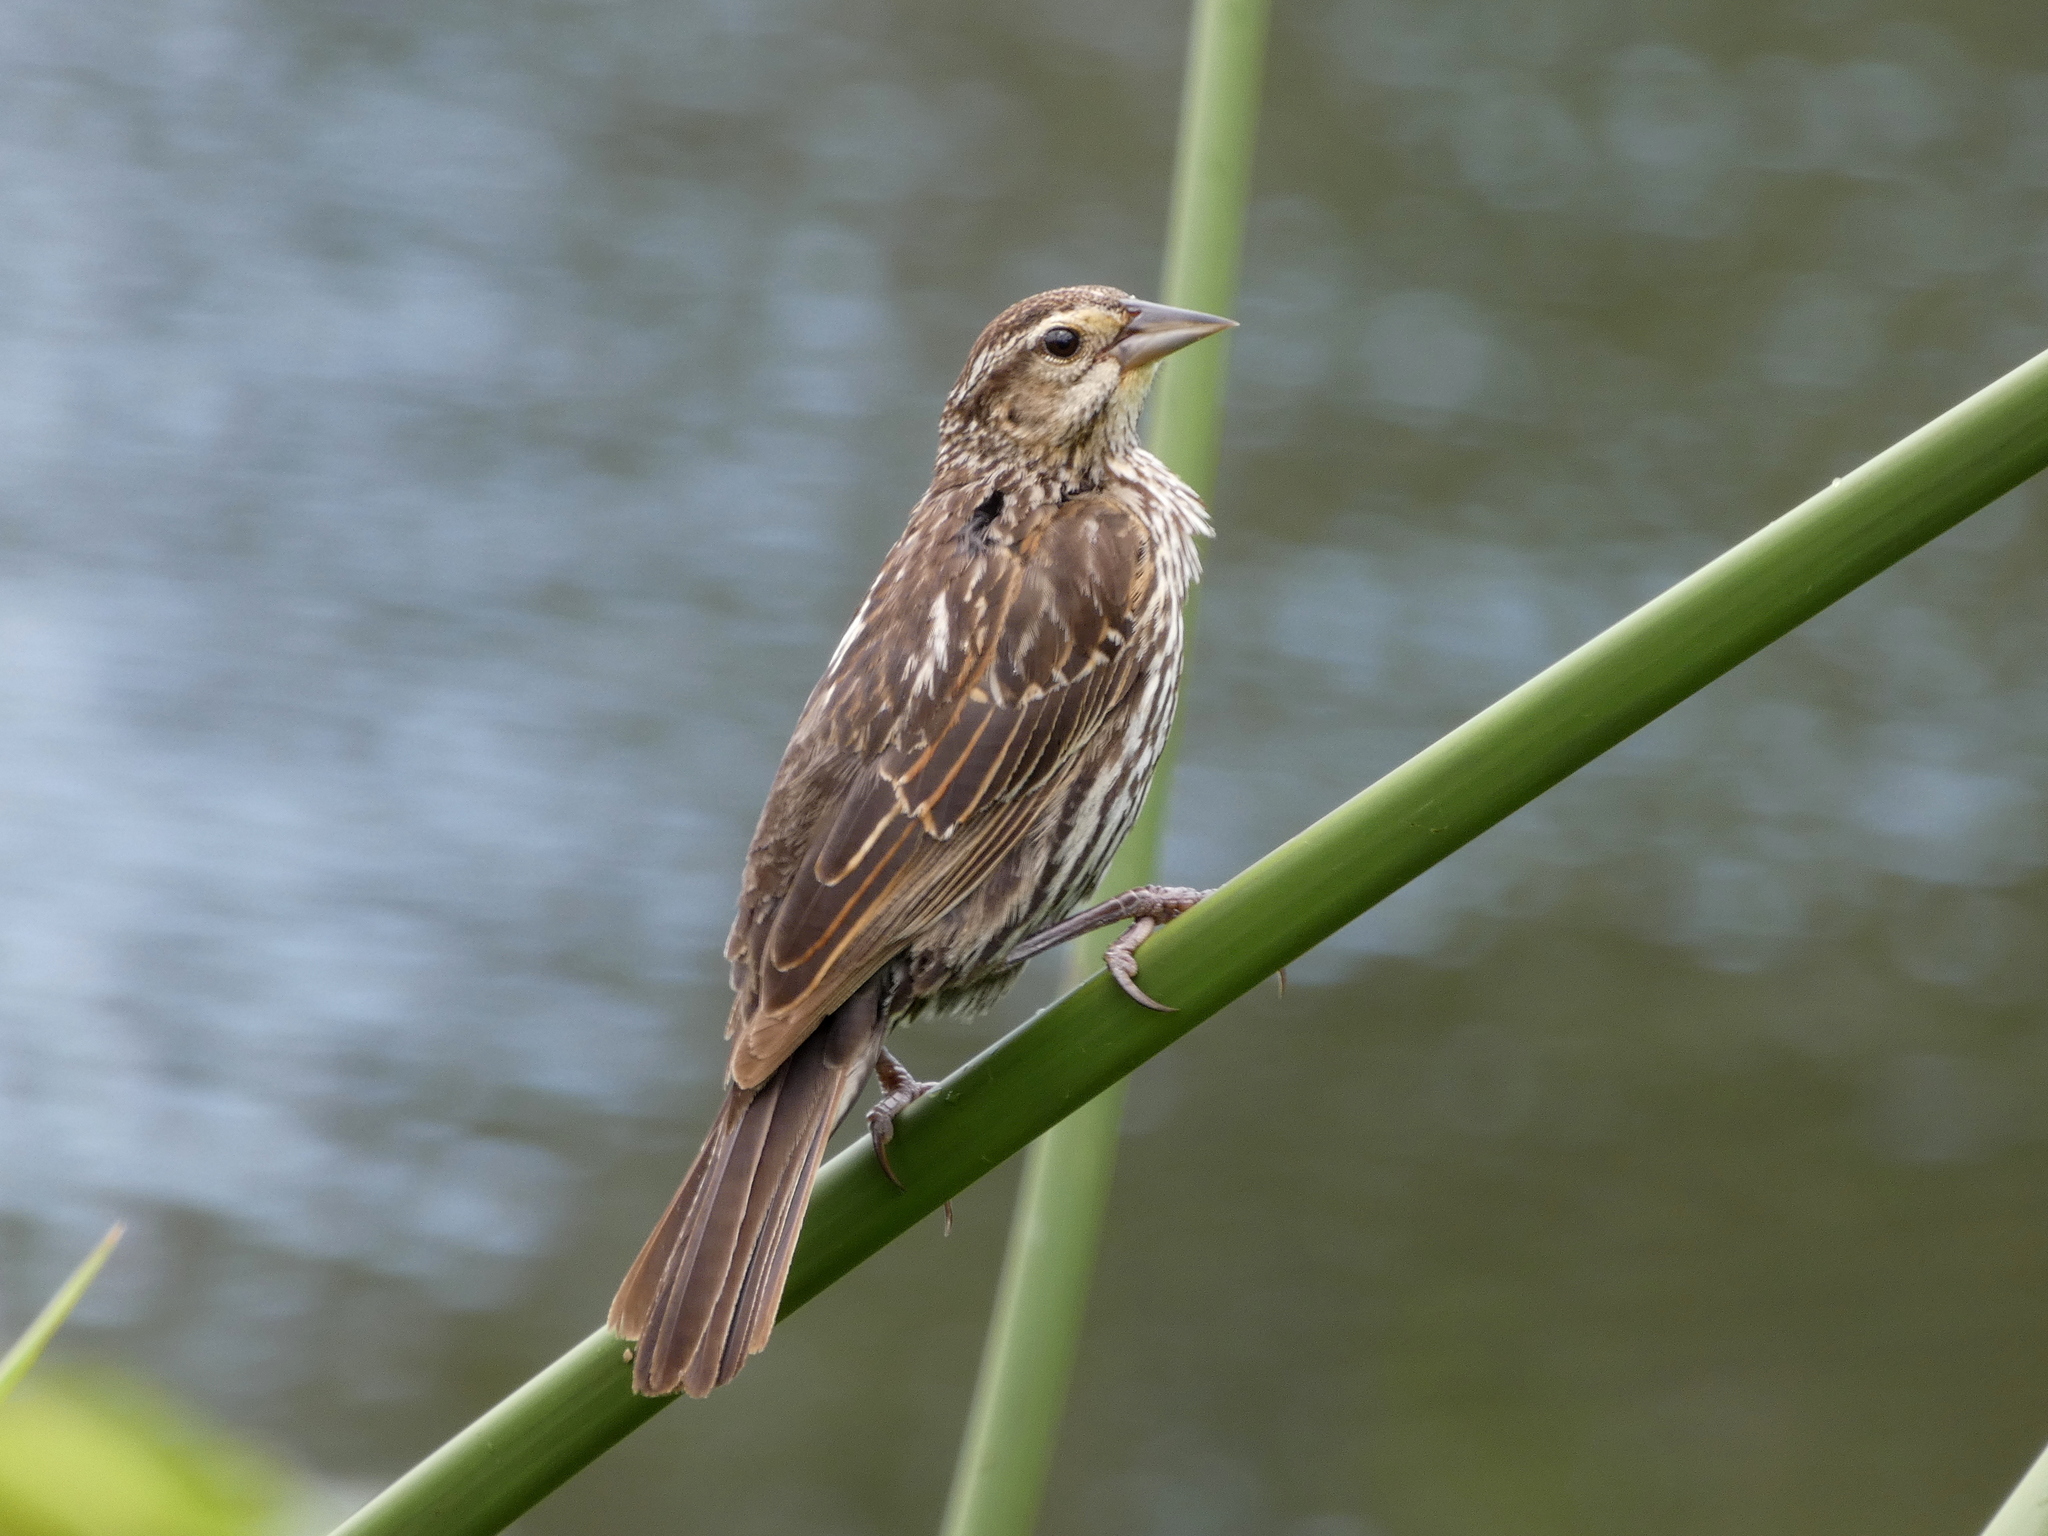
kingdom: Animalia
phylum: Chordata
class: Aves
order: Passeriformes
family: Icteridae
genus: Agelaius
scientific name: Agelaius phoeniceus
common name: Red-winged blackbird
